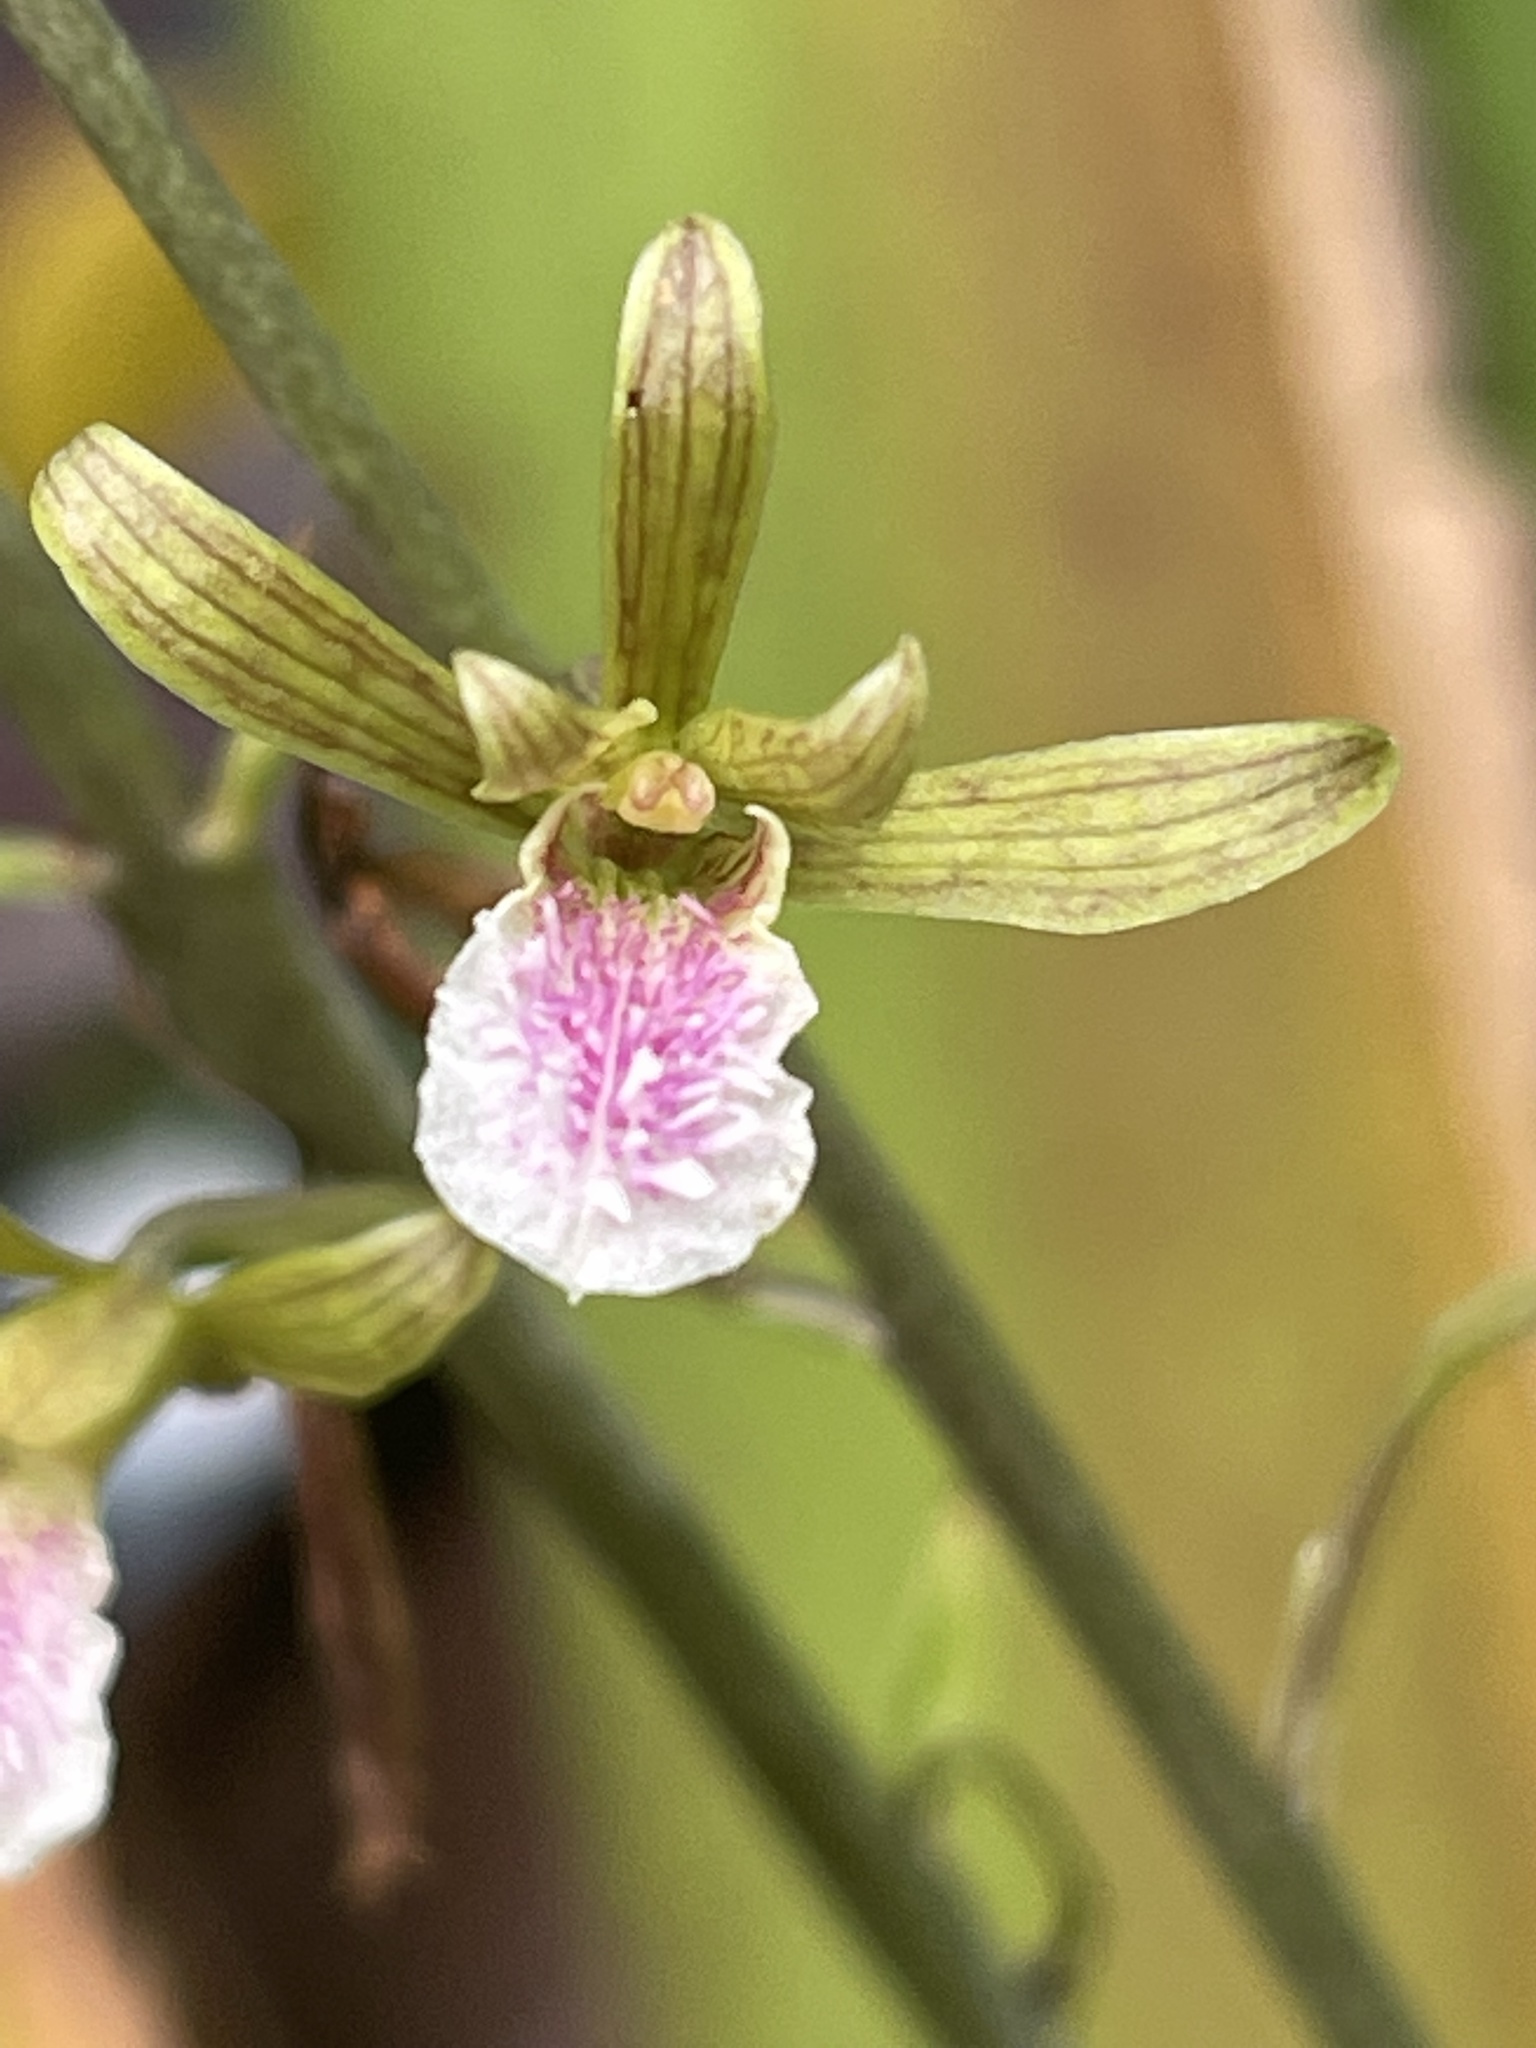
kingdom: Plantae
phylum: Tracheophyta
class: Liliopsida
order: Asparagales
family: Orchidaceae
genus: Eulophia
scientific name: Eulophia graminea
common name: Orchid
